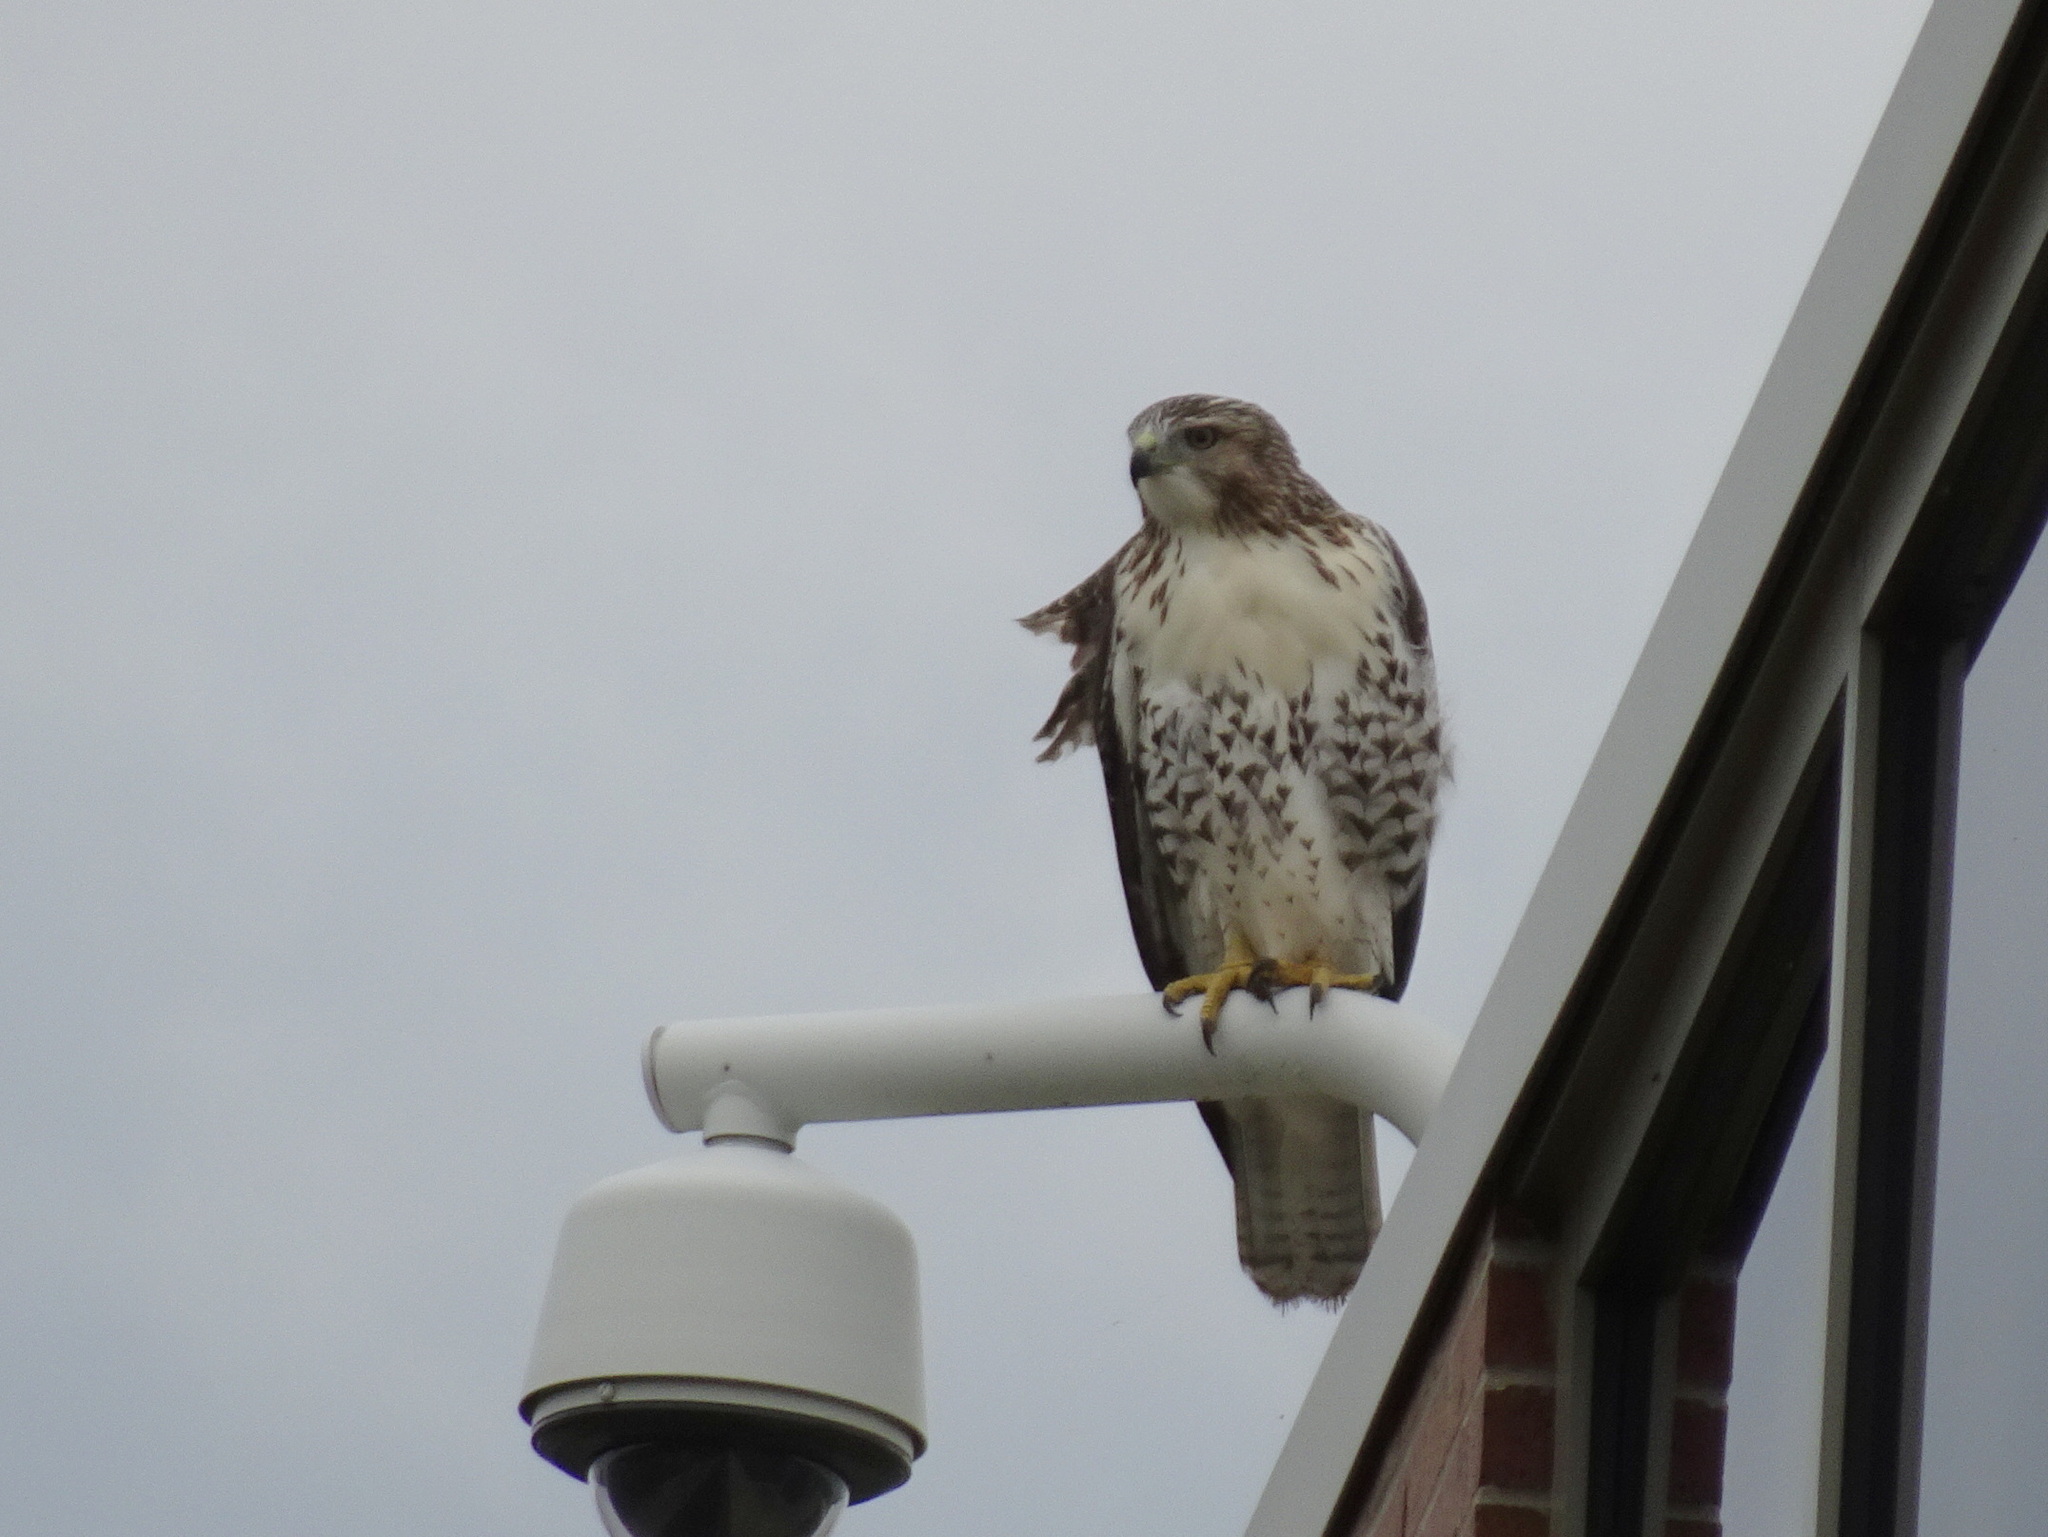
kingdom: Animalia
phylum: Chordata
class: Aves
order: Accipitriformes
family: Accipitridae
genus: Buteo
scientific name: Buteo jamaicensis
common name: Red-tailed hawk
